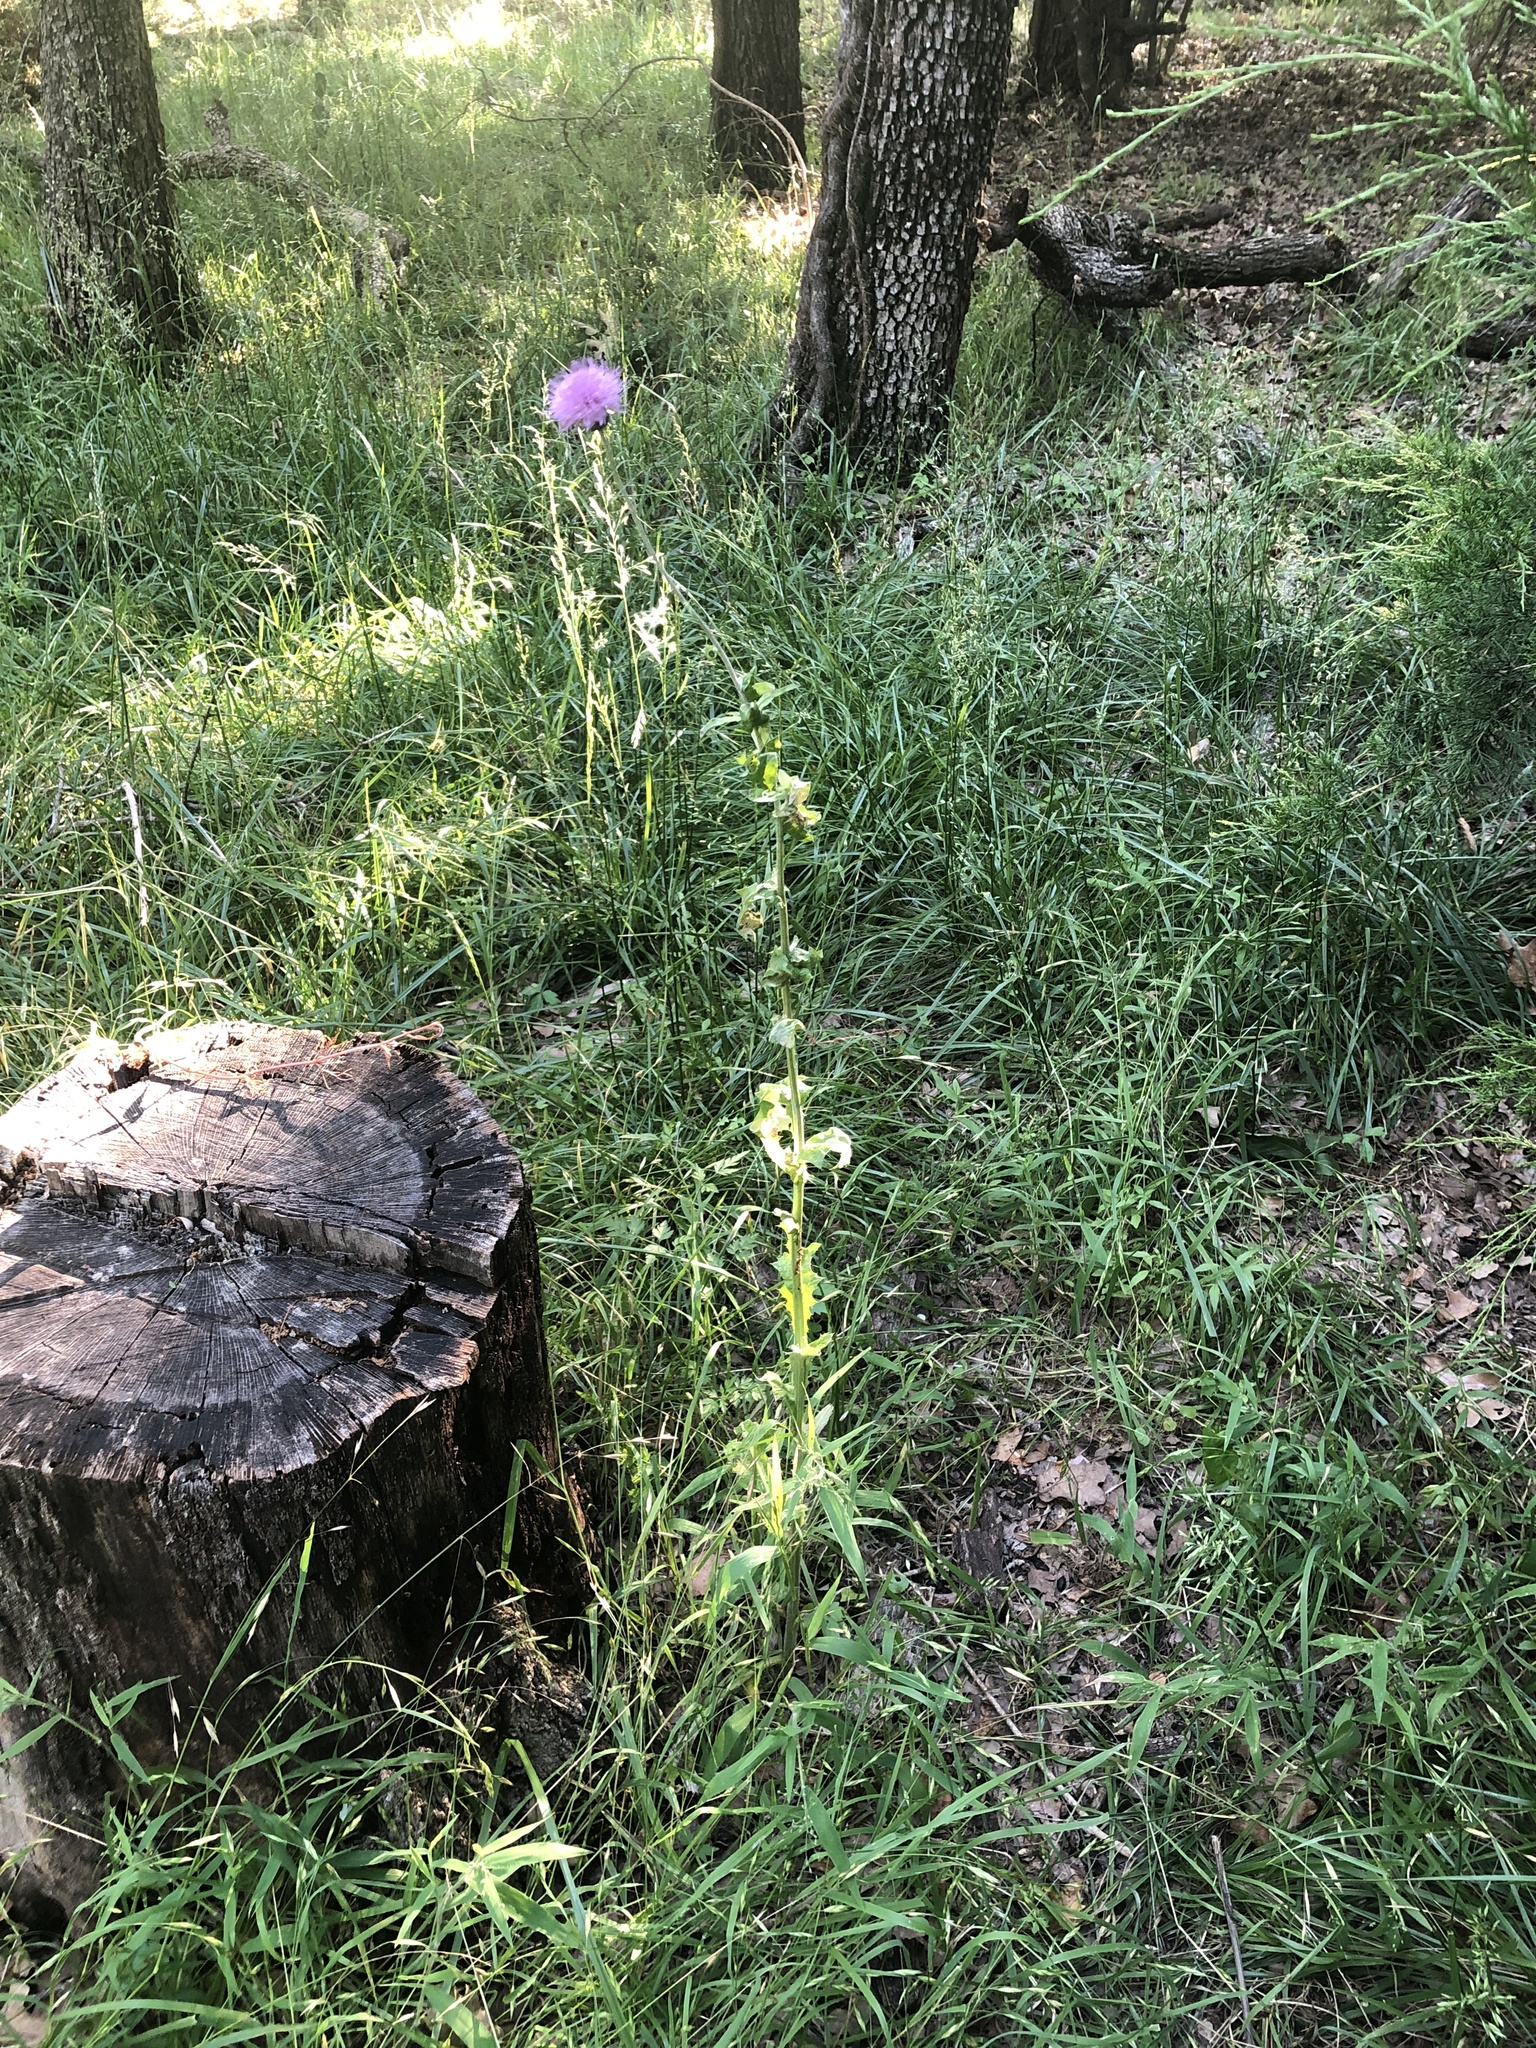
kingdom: Plantae
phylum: Tracheophyta
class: Magnoliopsida
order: Asterales
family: Asteraceae
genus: Cirsium
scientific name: Cirsium texanum
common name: Texas purple thistle
